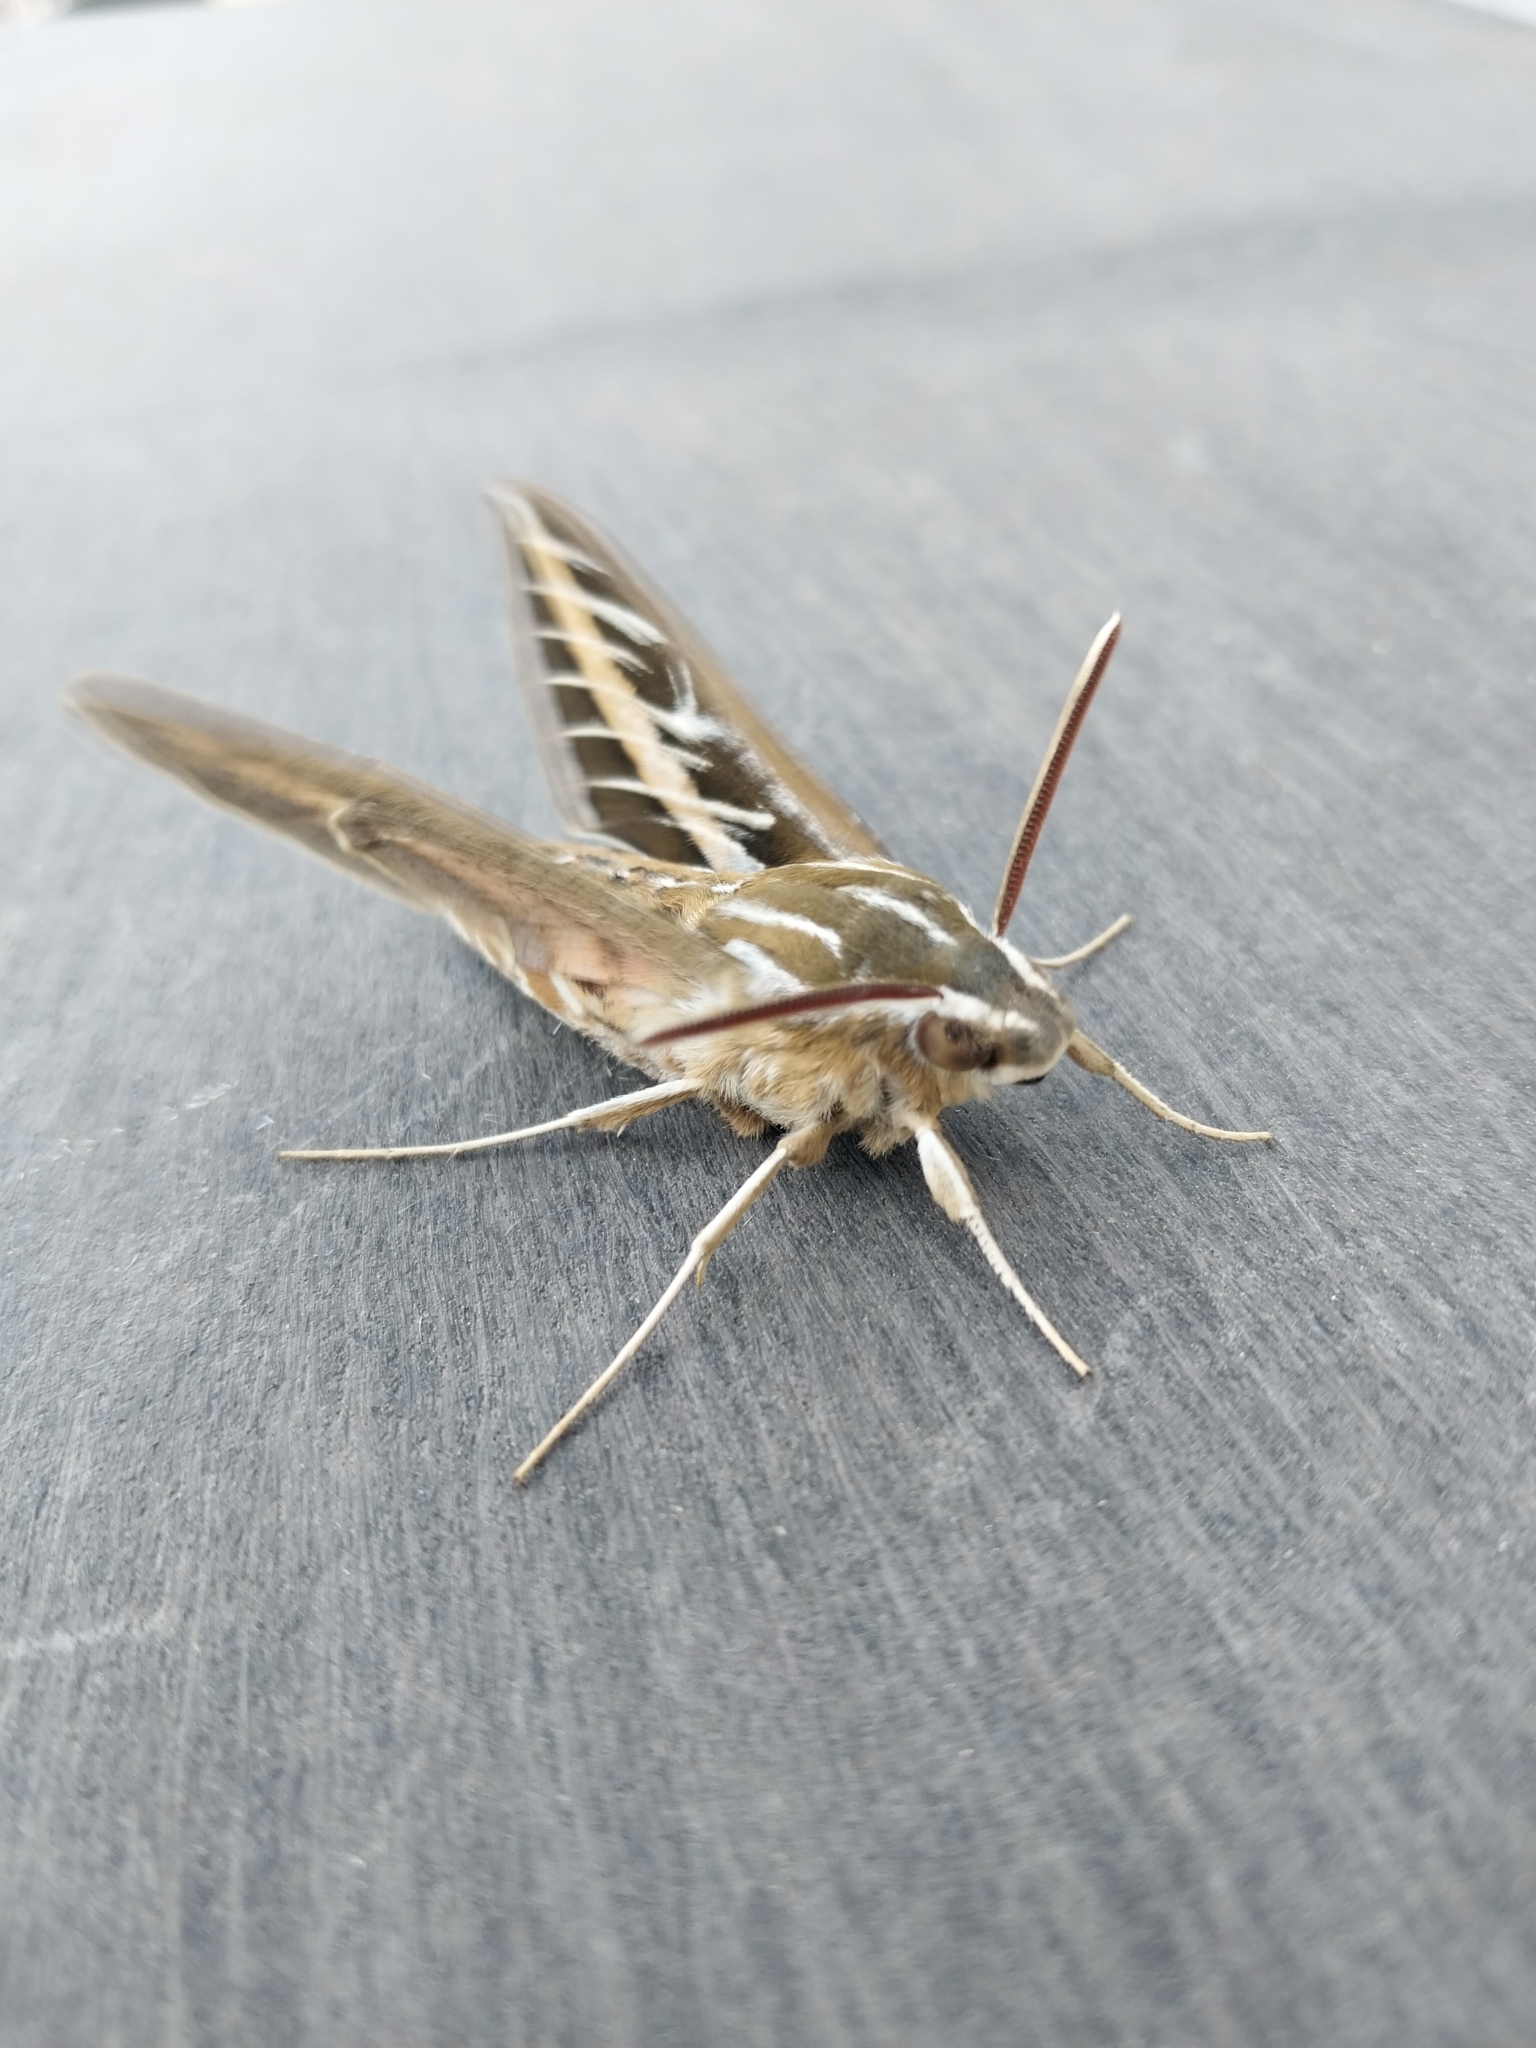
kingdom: Animalia
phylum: Arthropoda
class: Insecta
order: Lepidoptera
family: Sphingidae
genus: Hyles
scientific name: Hyles lineata
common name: White-lined sphinx
